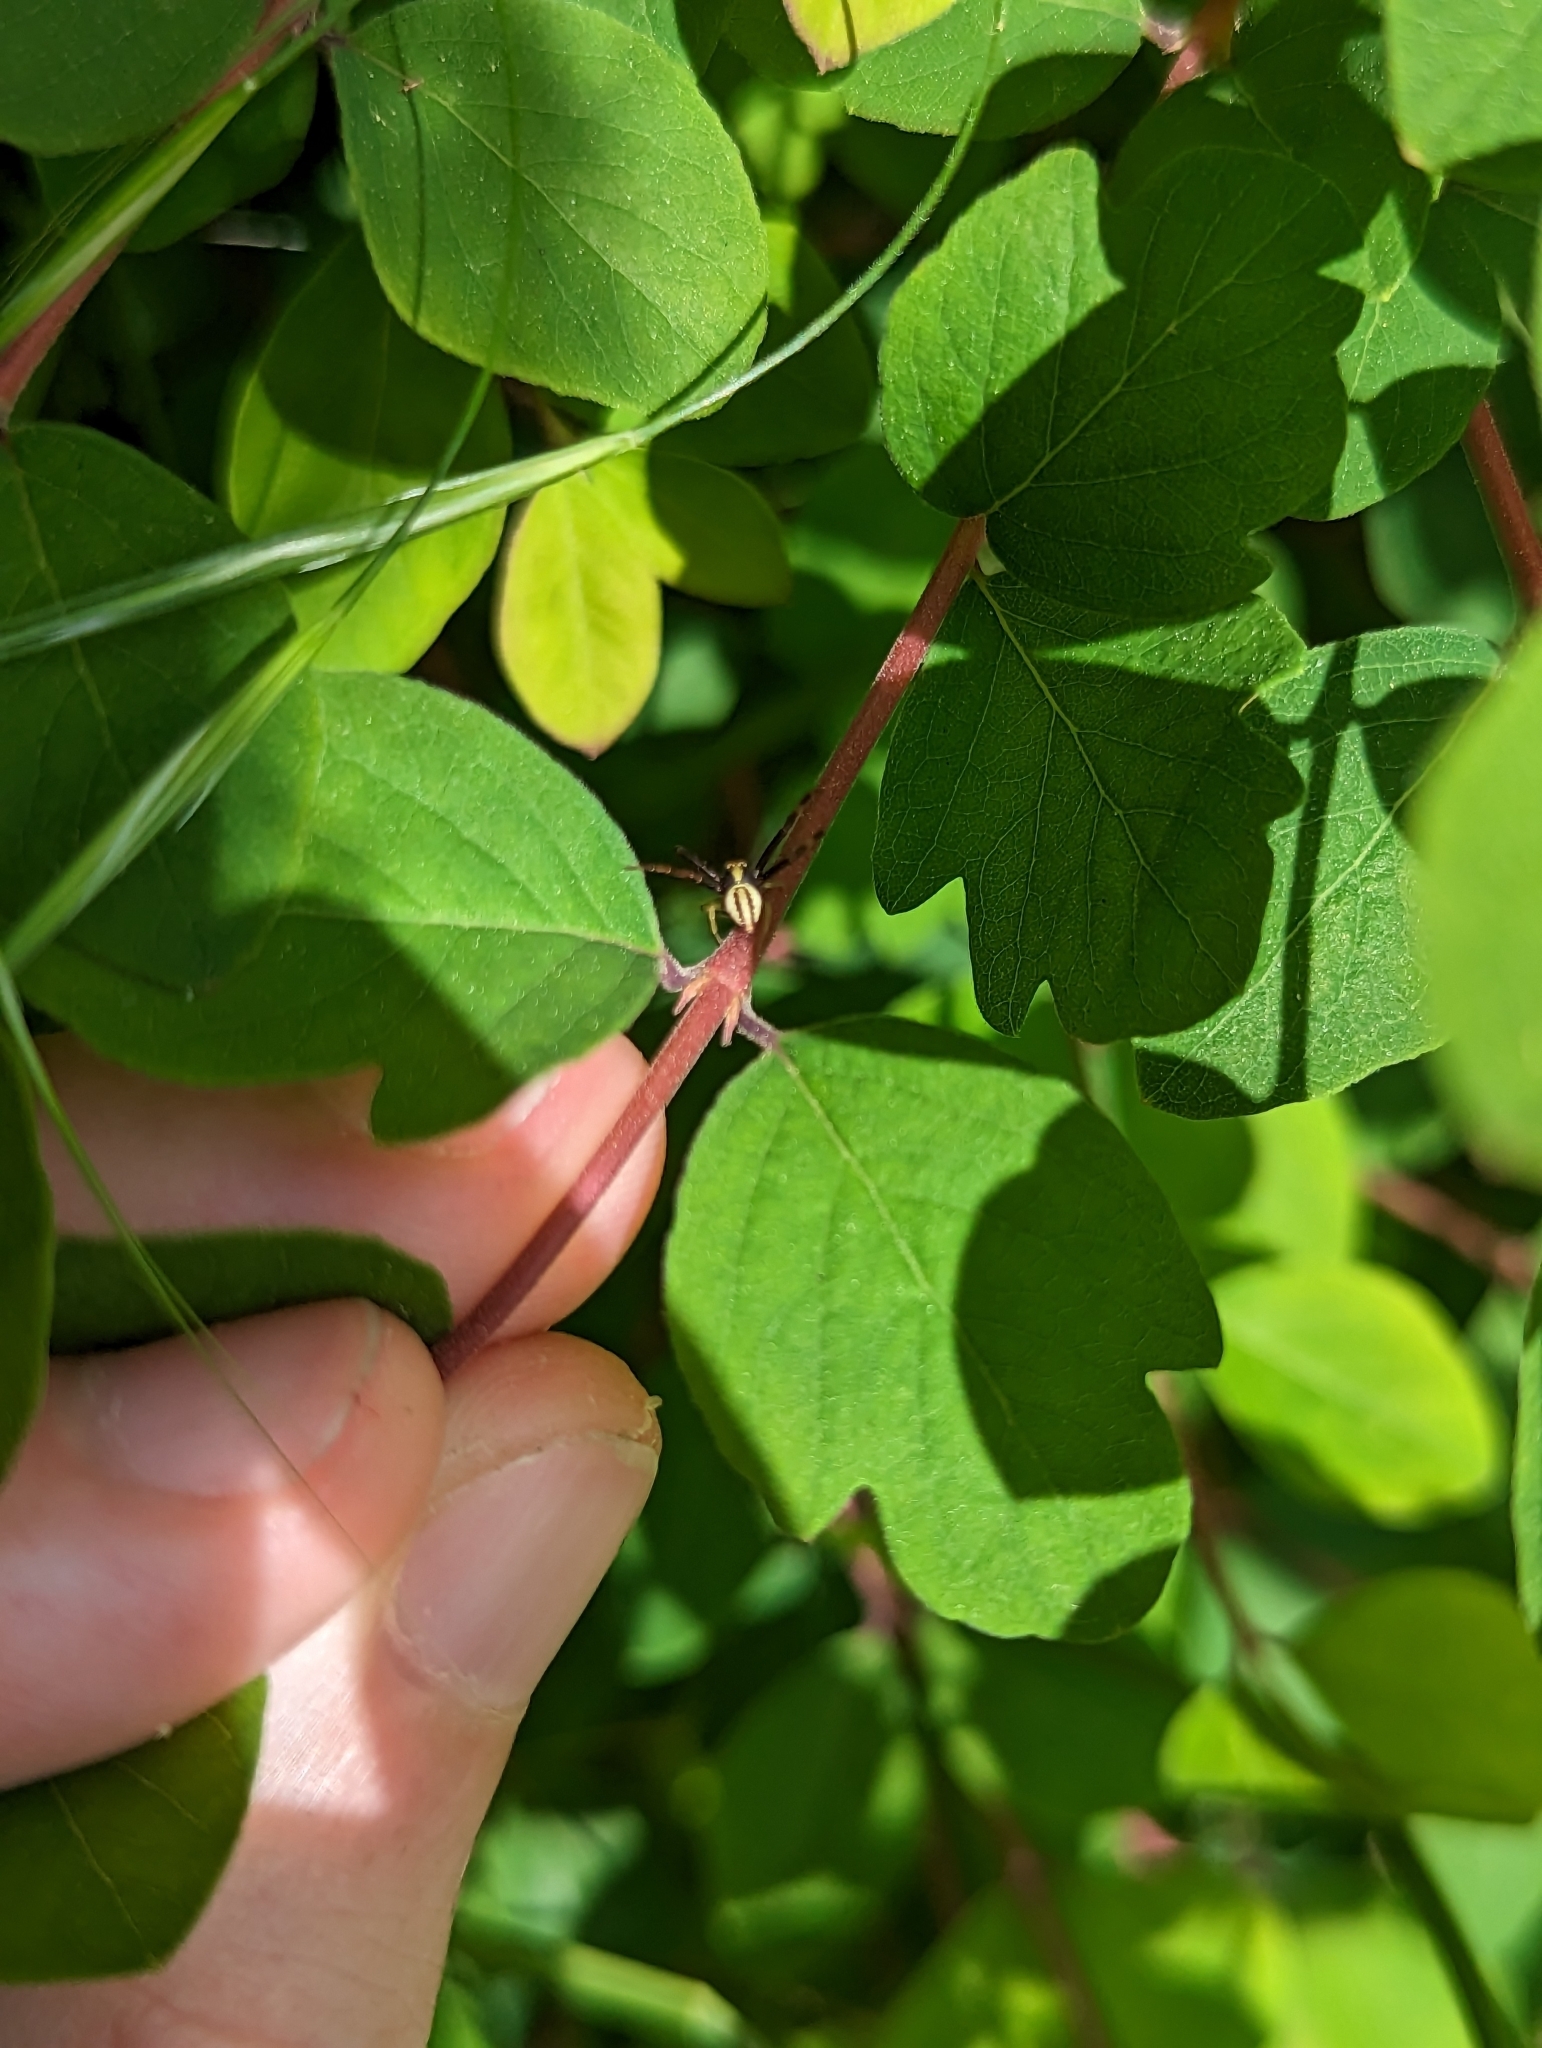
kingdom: Animalia
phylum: Arthropoda
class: Arachnida
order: Araneae
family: Thomisidae
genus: Misumena
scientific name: Misumena vatia
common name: Goldenrod crab spider
